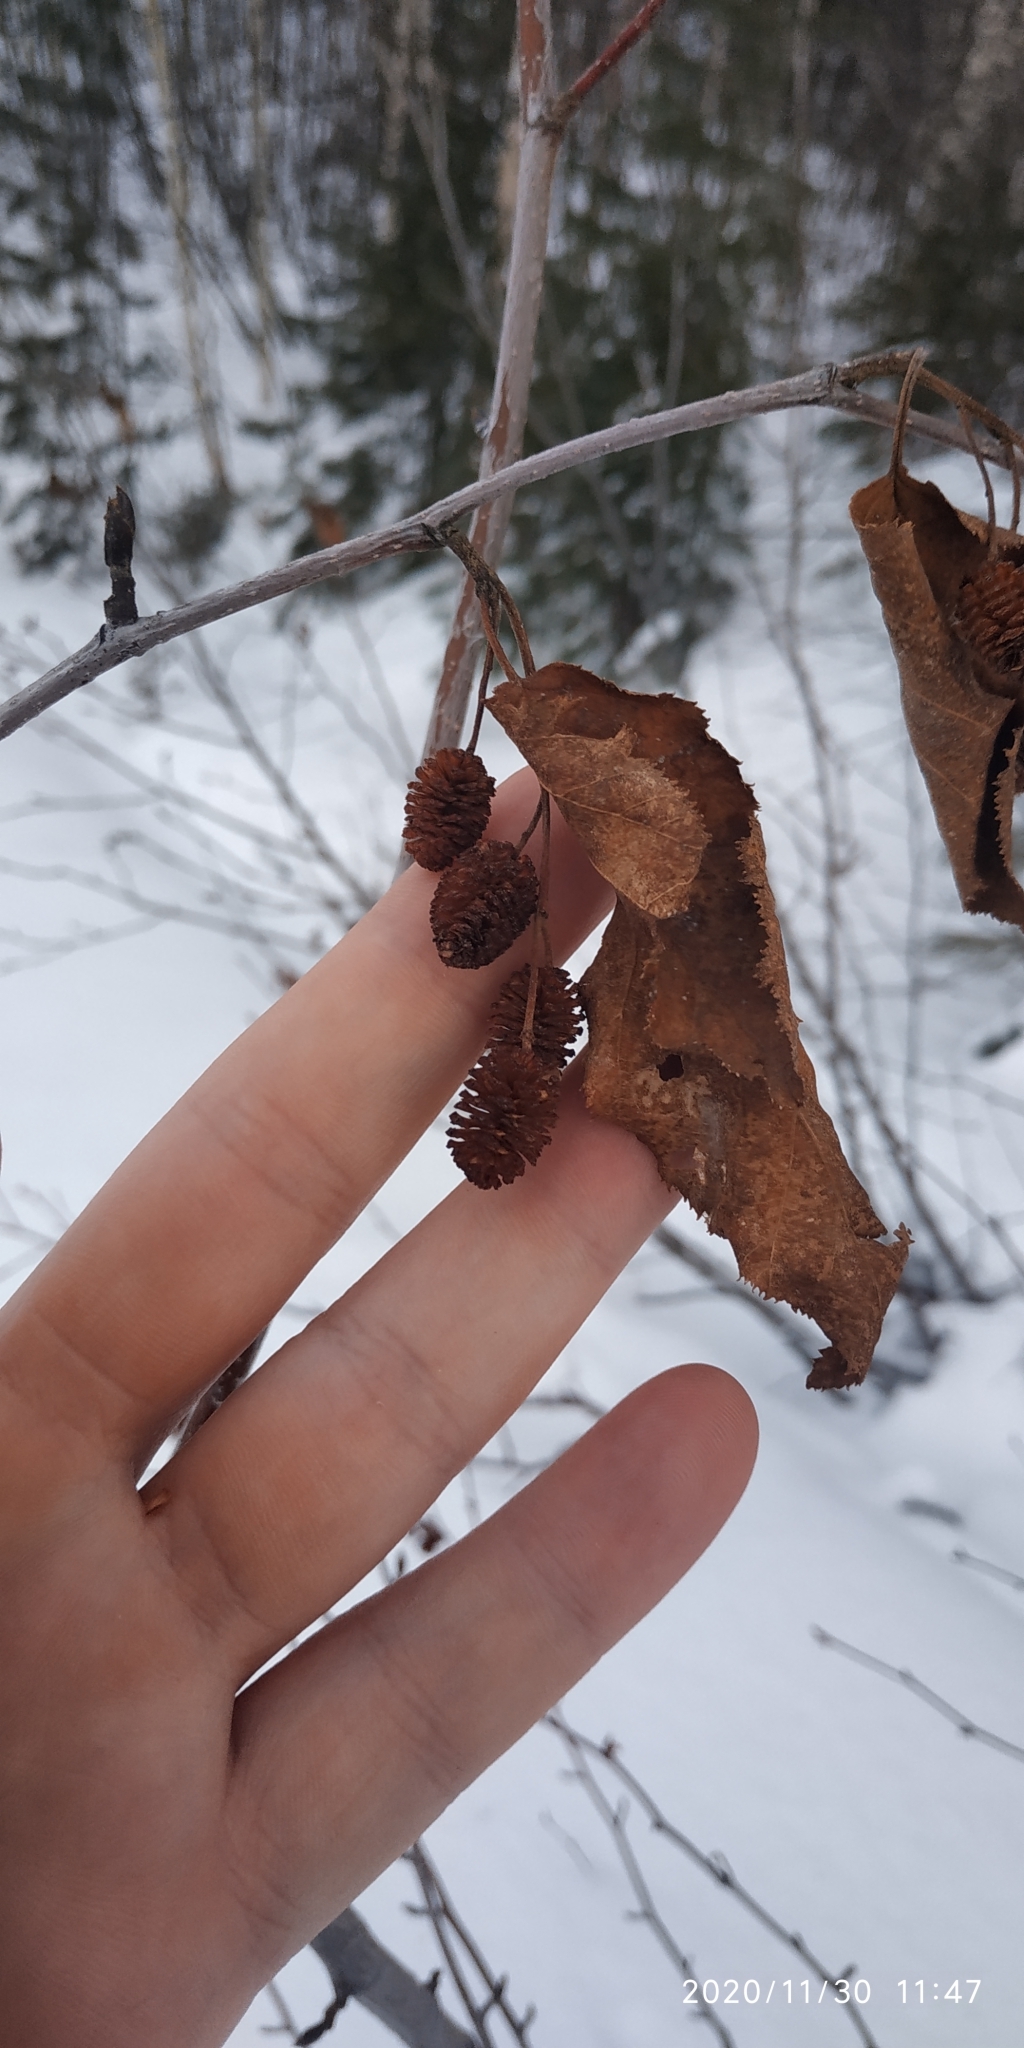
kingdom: Plantae
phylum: Tracheophyta
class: Magnoliopsida
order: Fagales
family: Betulaceae
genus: Alnus
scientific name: Alnus alnobetula
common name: Green alder
